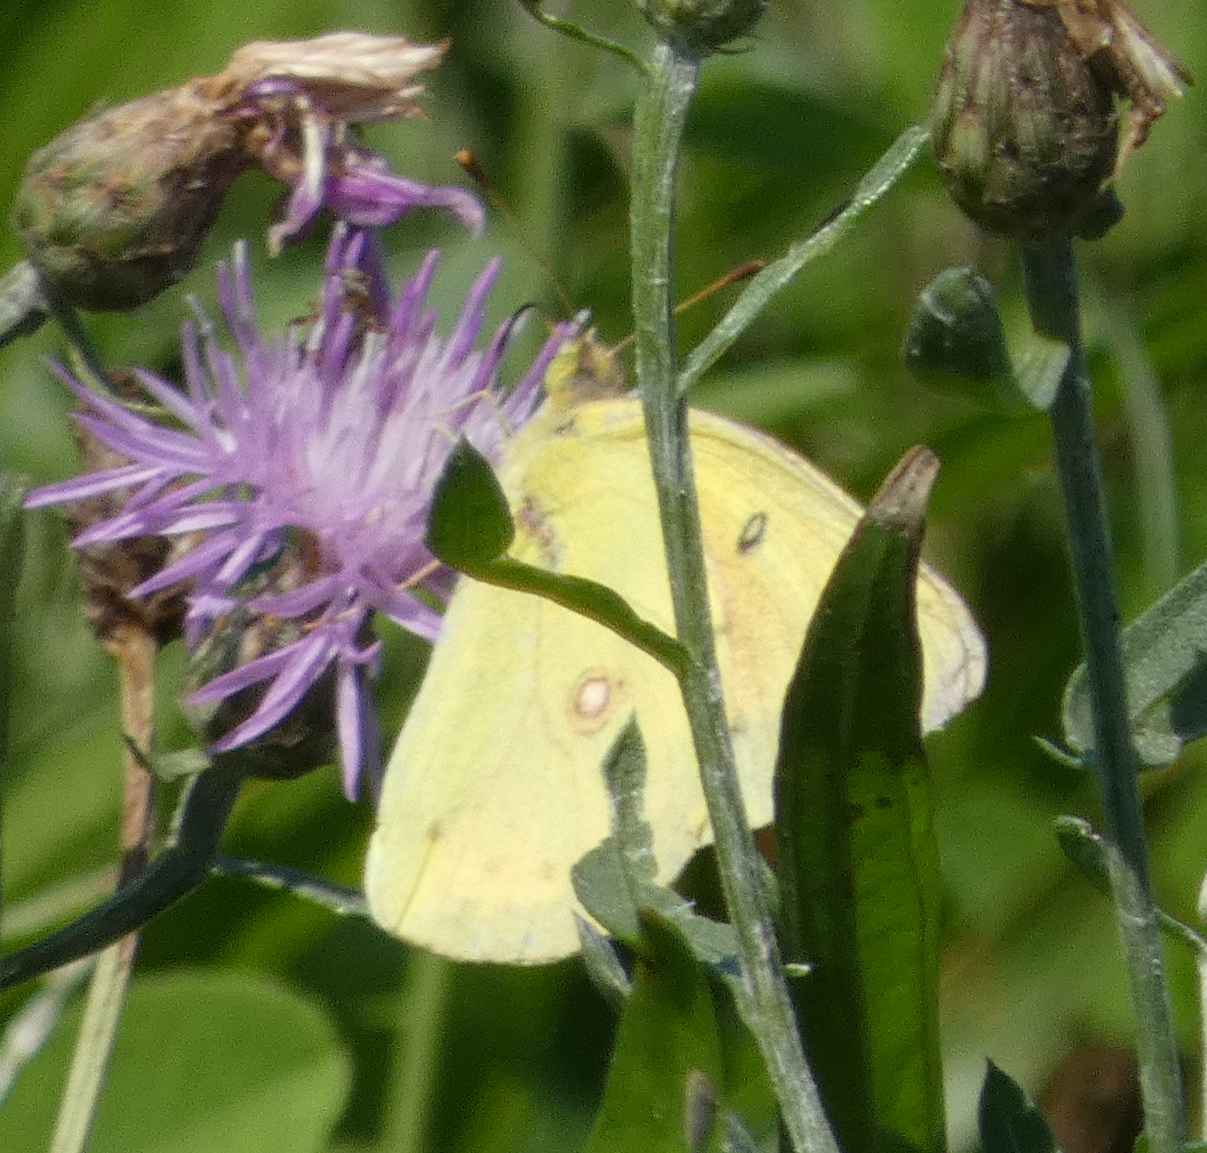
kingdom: Animalia
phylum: Arthropoda
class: Insecta
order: Lepidoptera
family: Pieridae
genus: Colias
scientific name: Colias philodice
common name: Clouded sulphur
